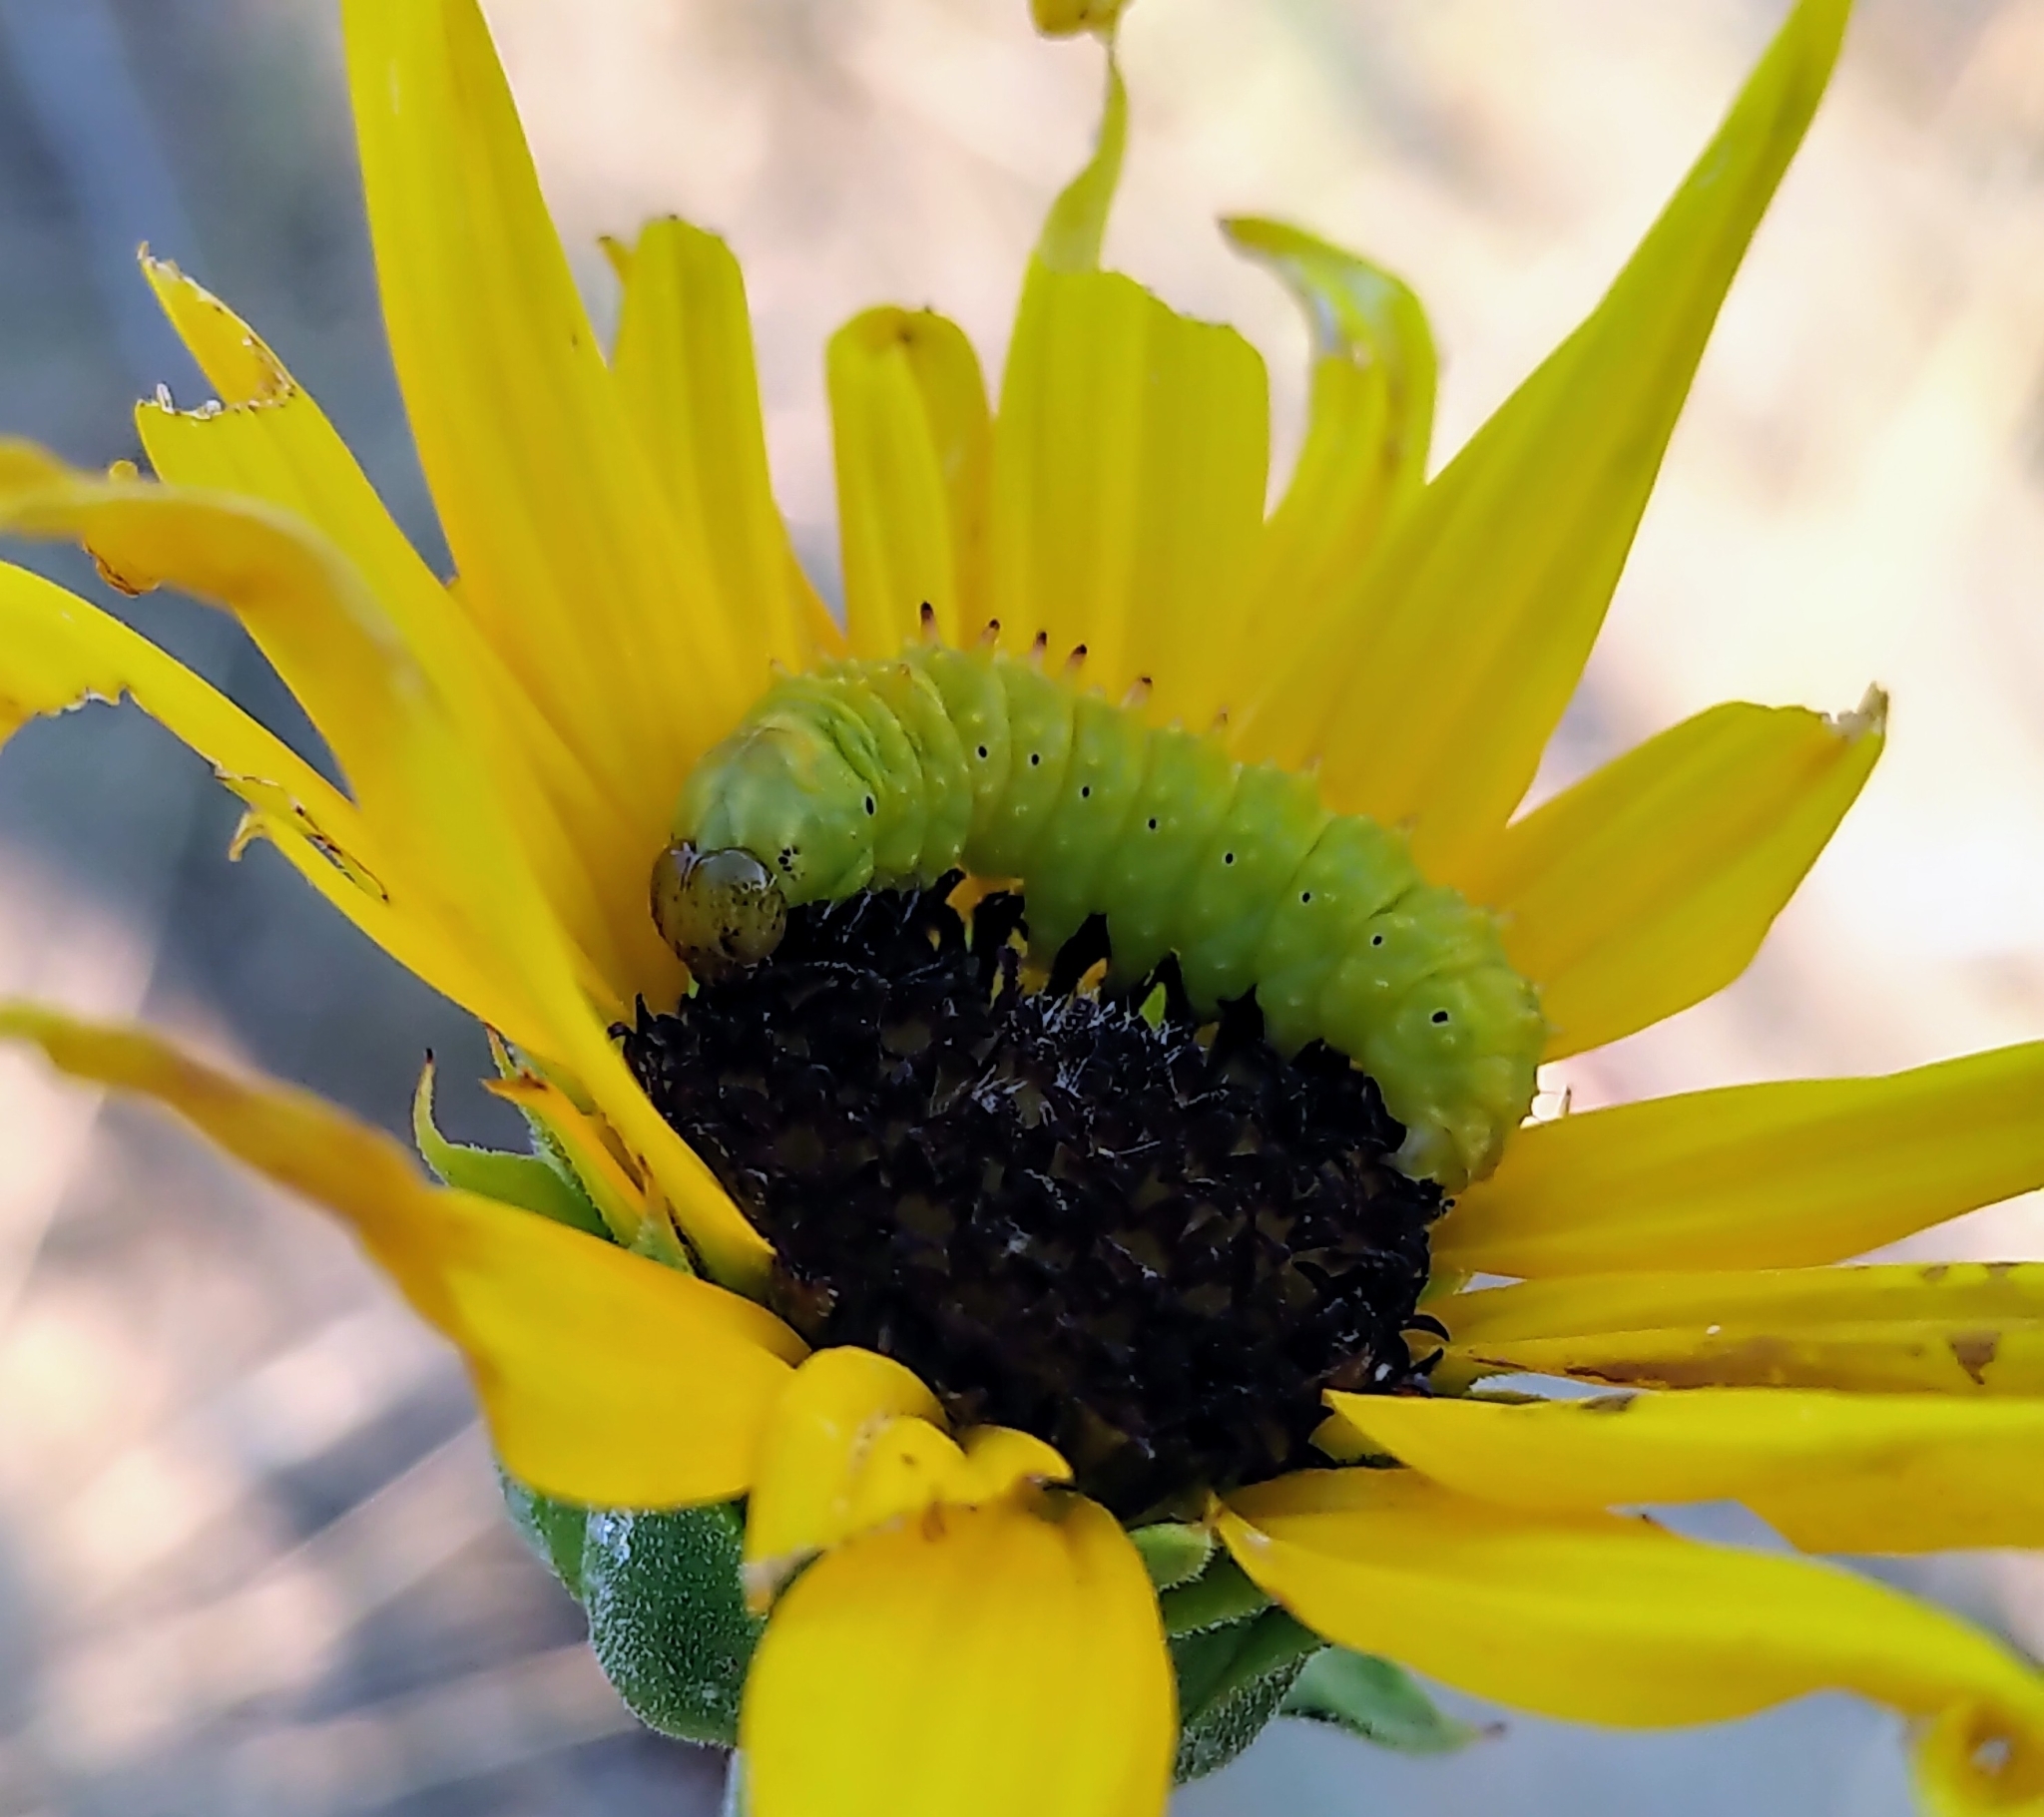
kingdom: Animalia
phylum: Arthropoda
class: Insecta
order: Lepidoptera
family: Noctuidae
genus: Stiria
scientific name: Stiria rugifrons
